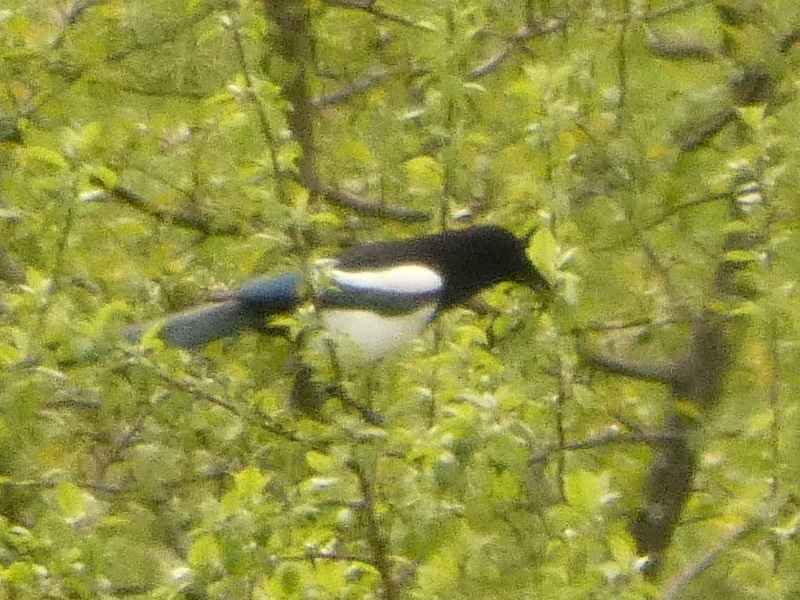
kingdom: Animalia
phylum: Chordata
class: Aves
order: Passeriformes
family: Corvidae
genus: Pica
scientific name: Pica pica
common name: Eurasian magpie
